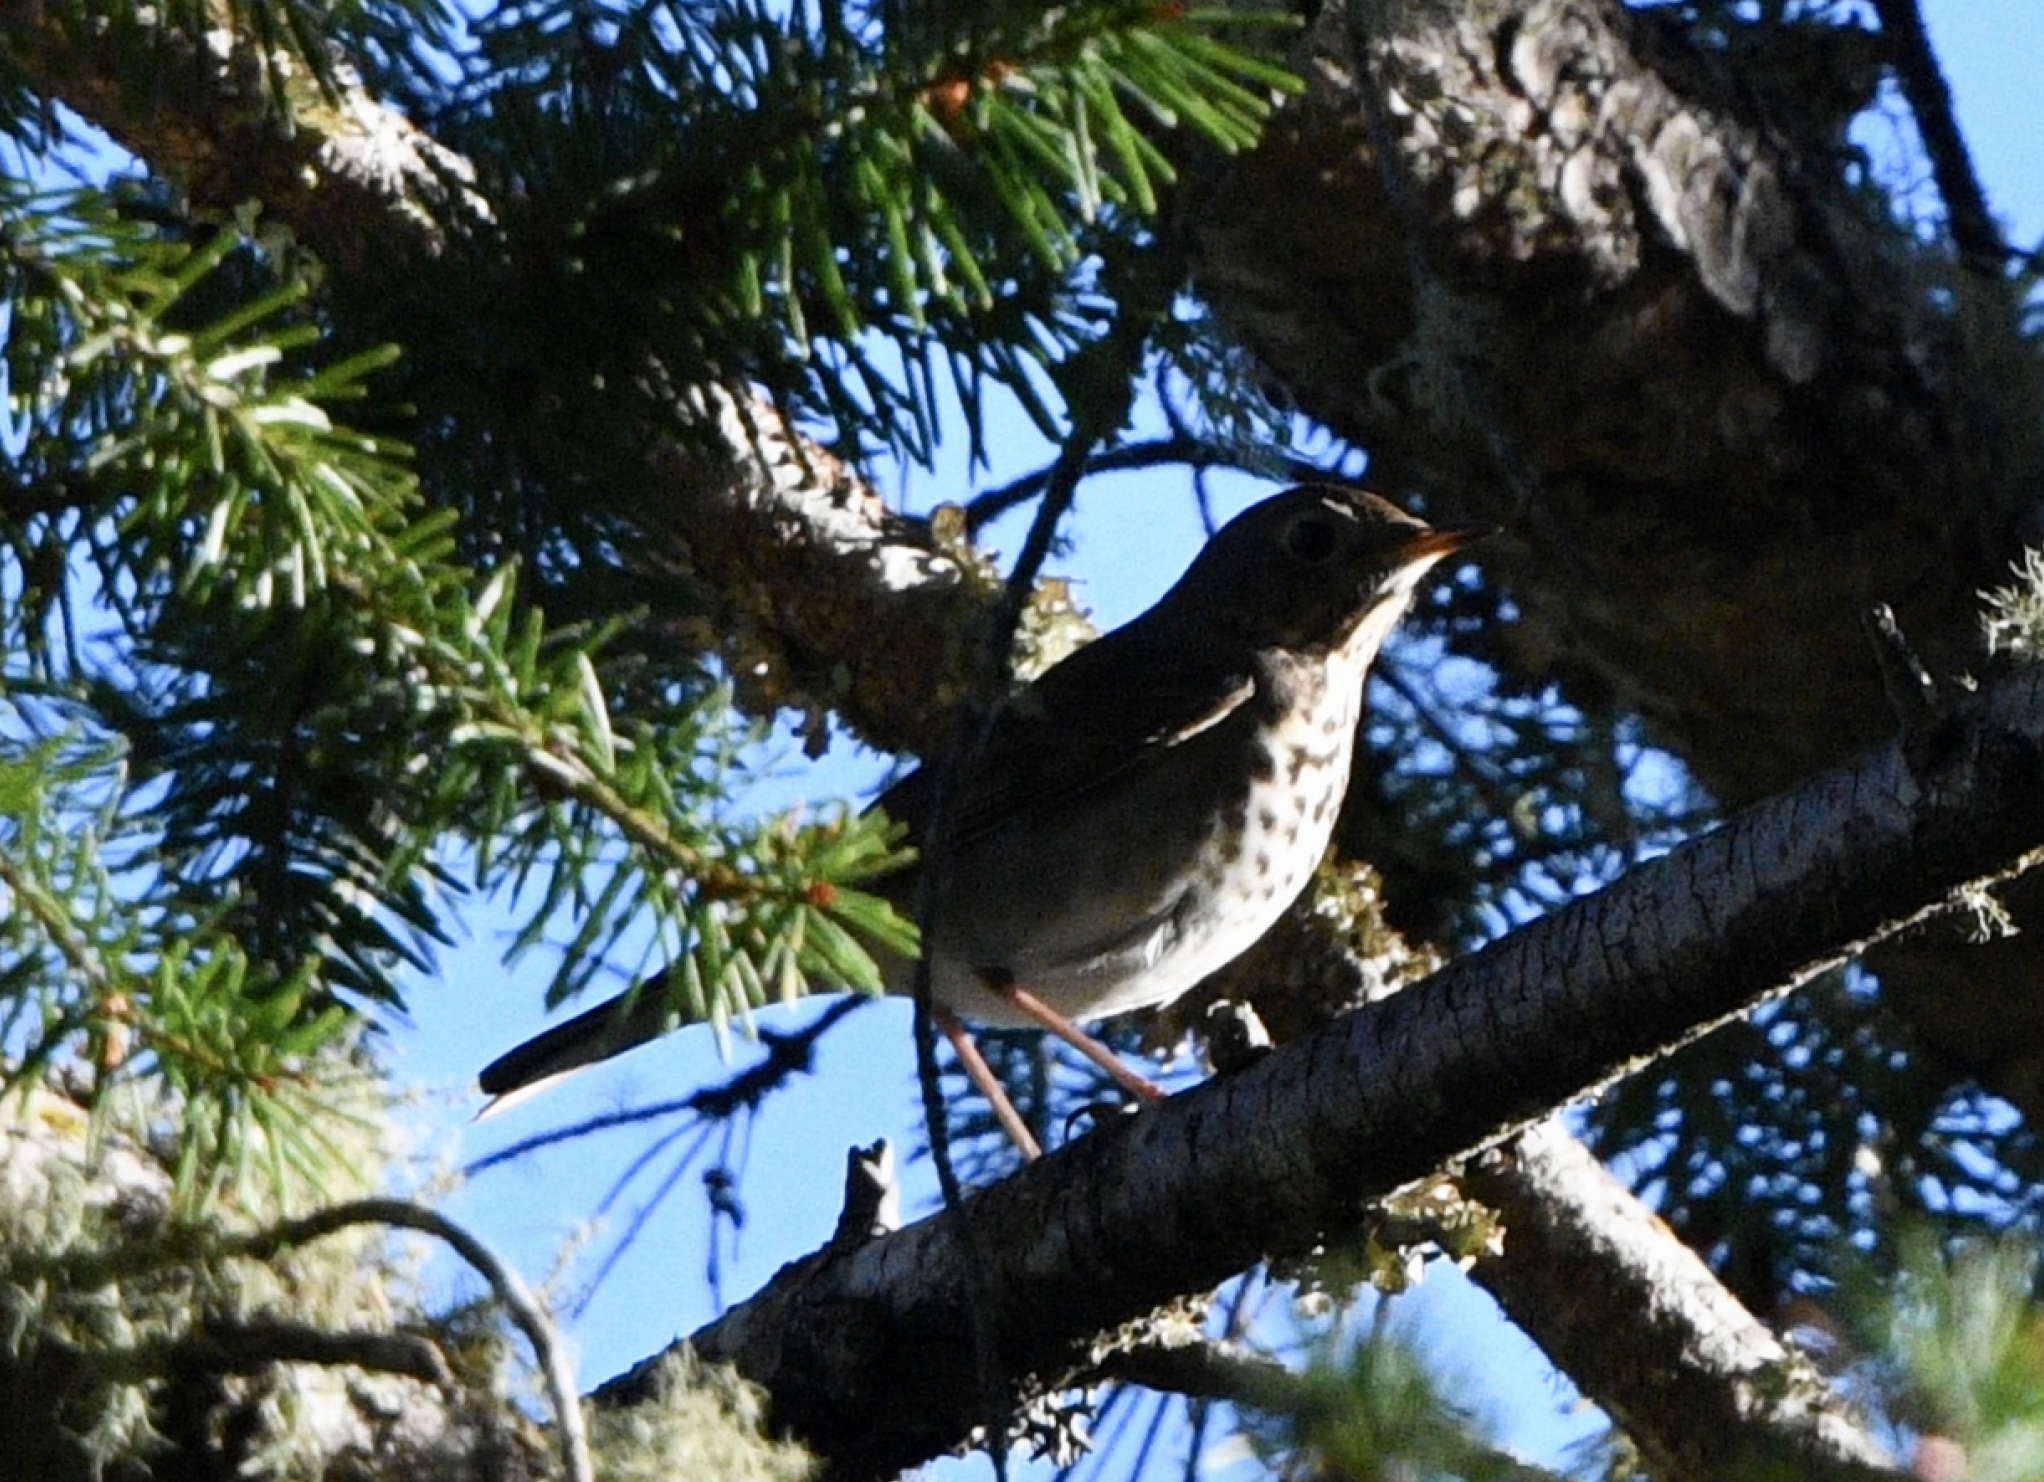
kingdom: Animalia
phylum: Chordata
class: Aves
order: Passeriformes
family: Turdidae
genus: Catharus
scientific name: Catharus guttatus
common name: Hermit thrush
